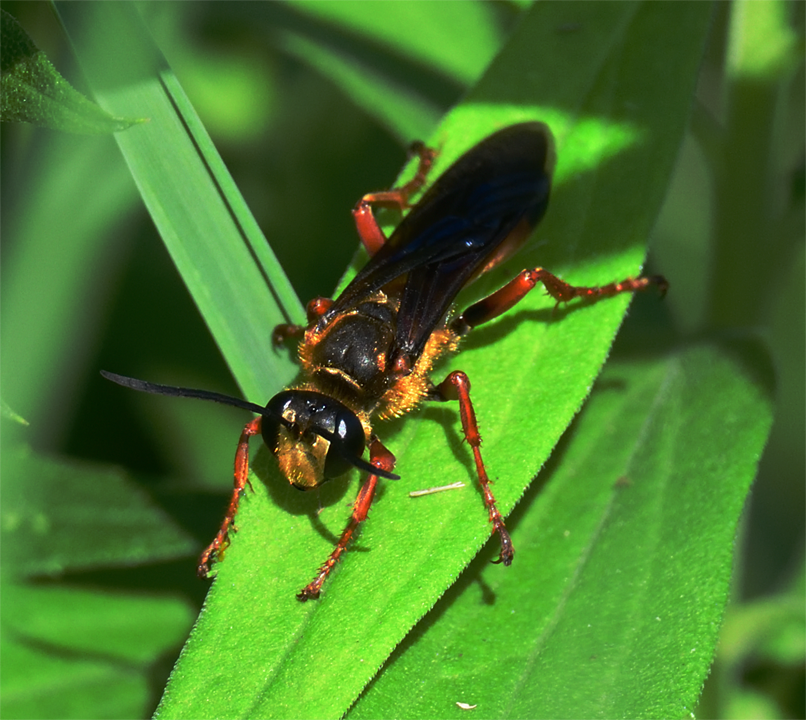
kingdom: Animalia
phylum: Arthropoda
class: Insecta
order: Hymenoptera
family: Sphecidae
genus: Sphex
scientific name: Sphex ichneumoneus
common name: Great golden digger wasp
